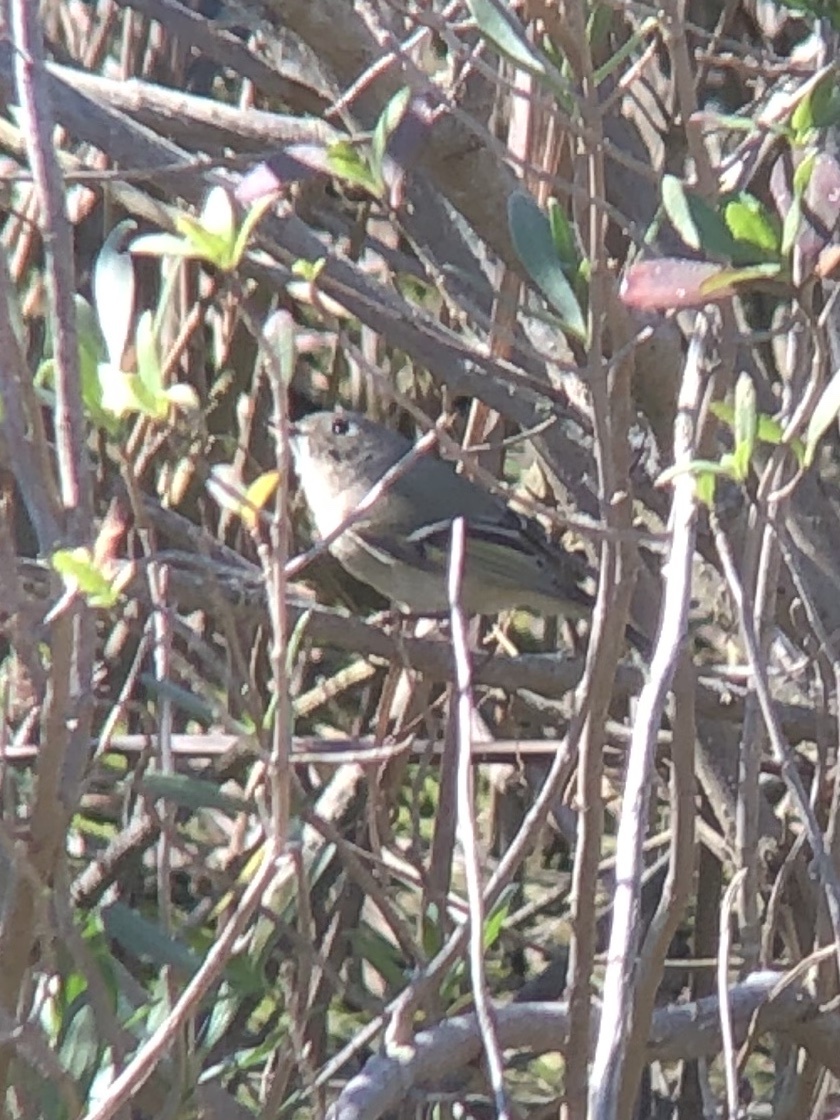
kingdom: Animalia
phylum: Chordata
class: Aves
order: Passeriformes
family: Regulidae
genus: Regulus
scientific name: Regulus calendula
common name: Ruby-crowned kinglet
